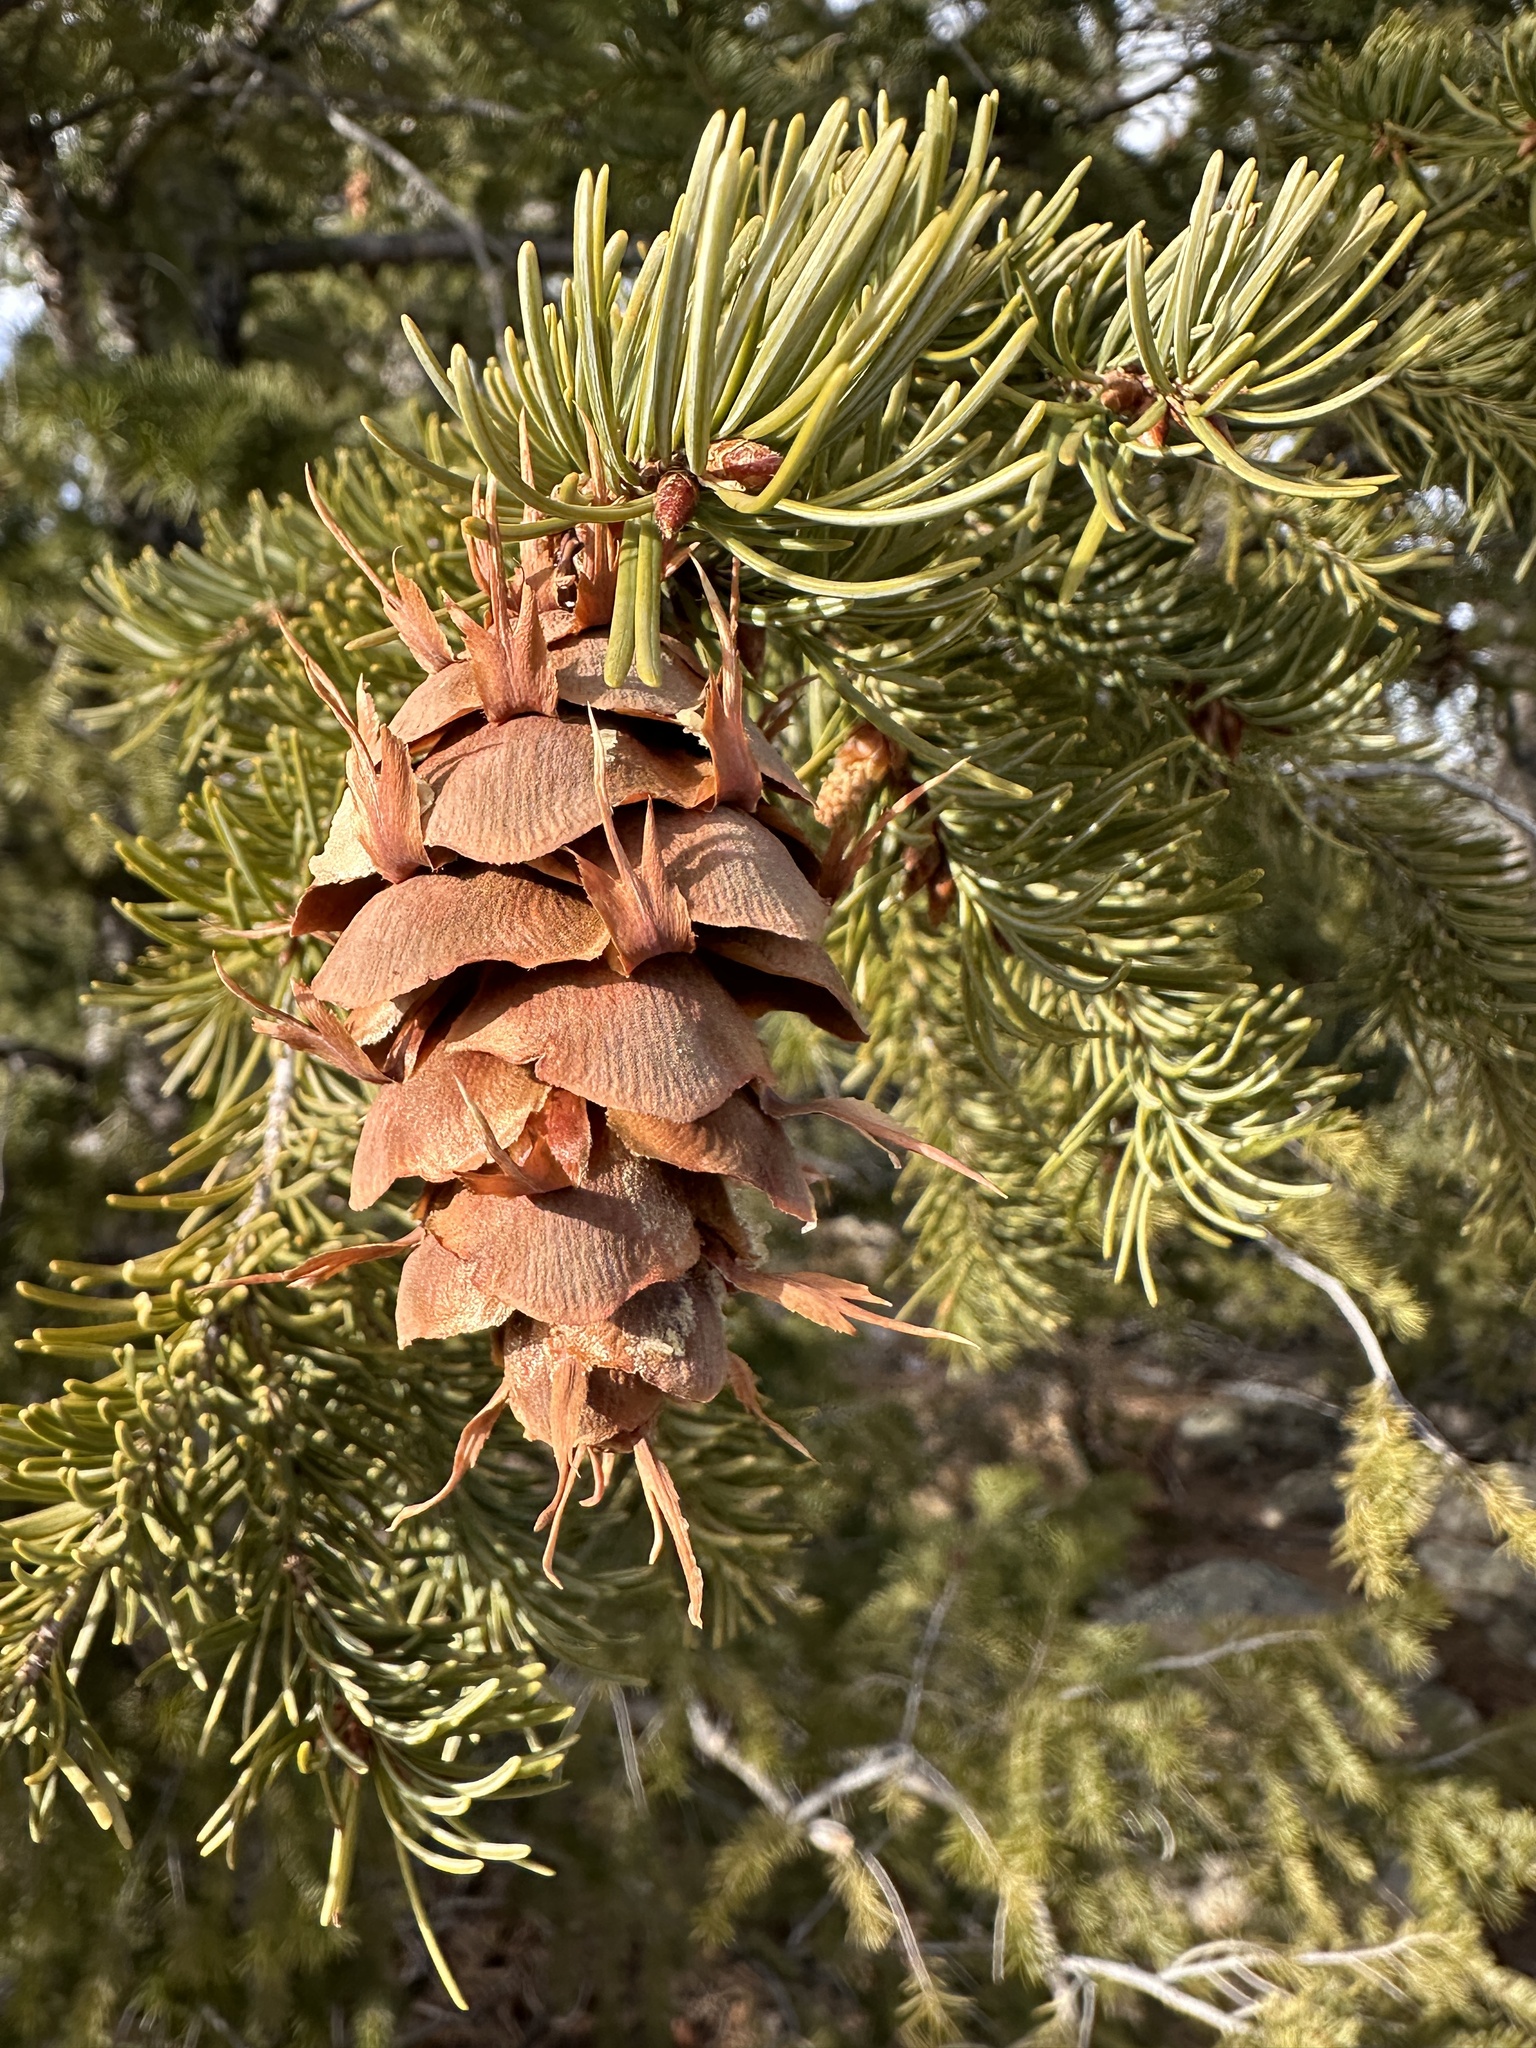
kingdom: Plantae
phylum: Tracheophyta
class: Pinopsida
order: Pinales
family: Pinaceae
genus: Pseudotsuga
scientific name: Pseudotsuga menziesii
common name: Douglas fir
